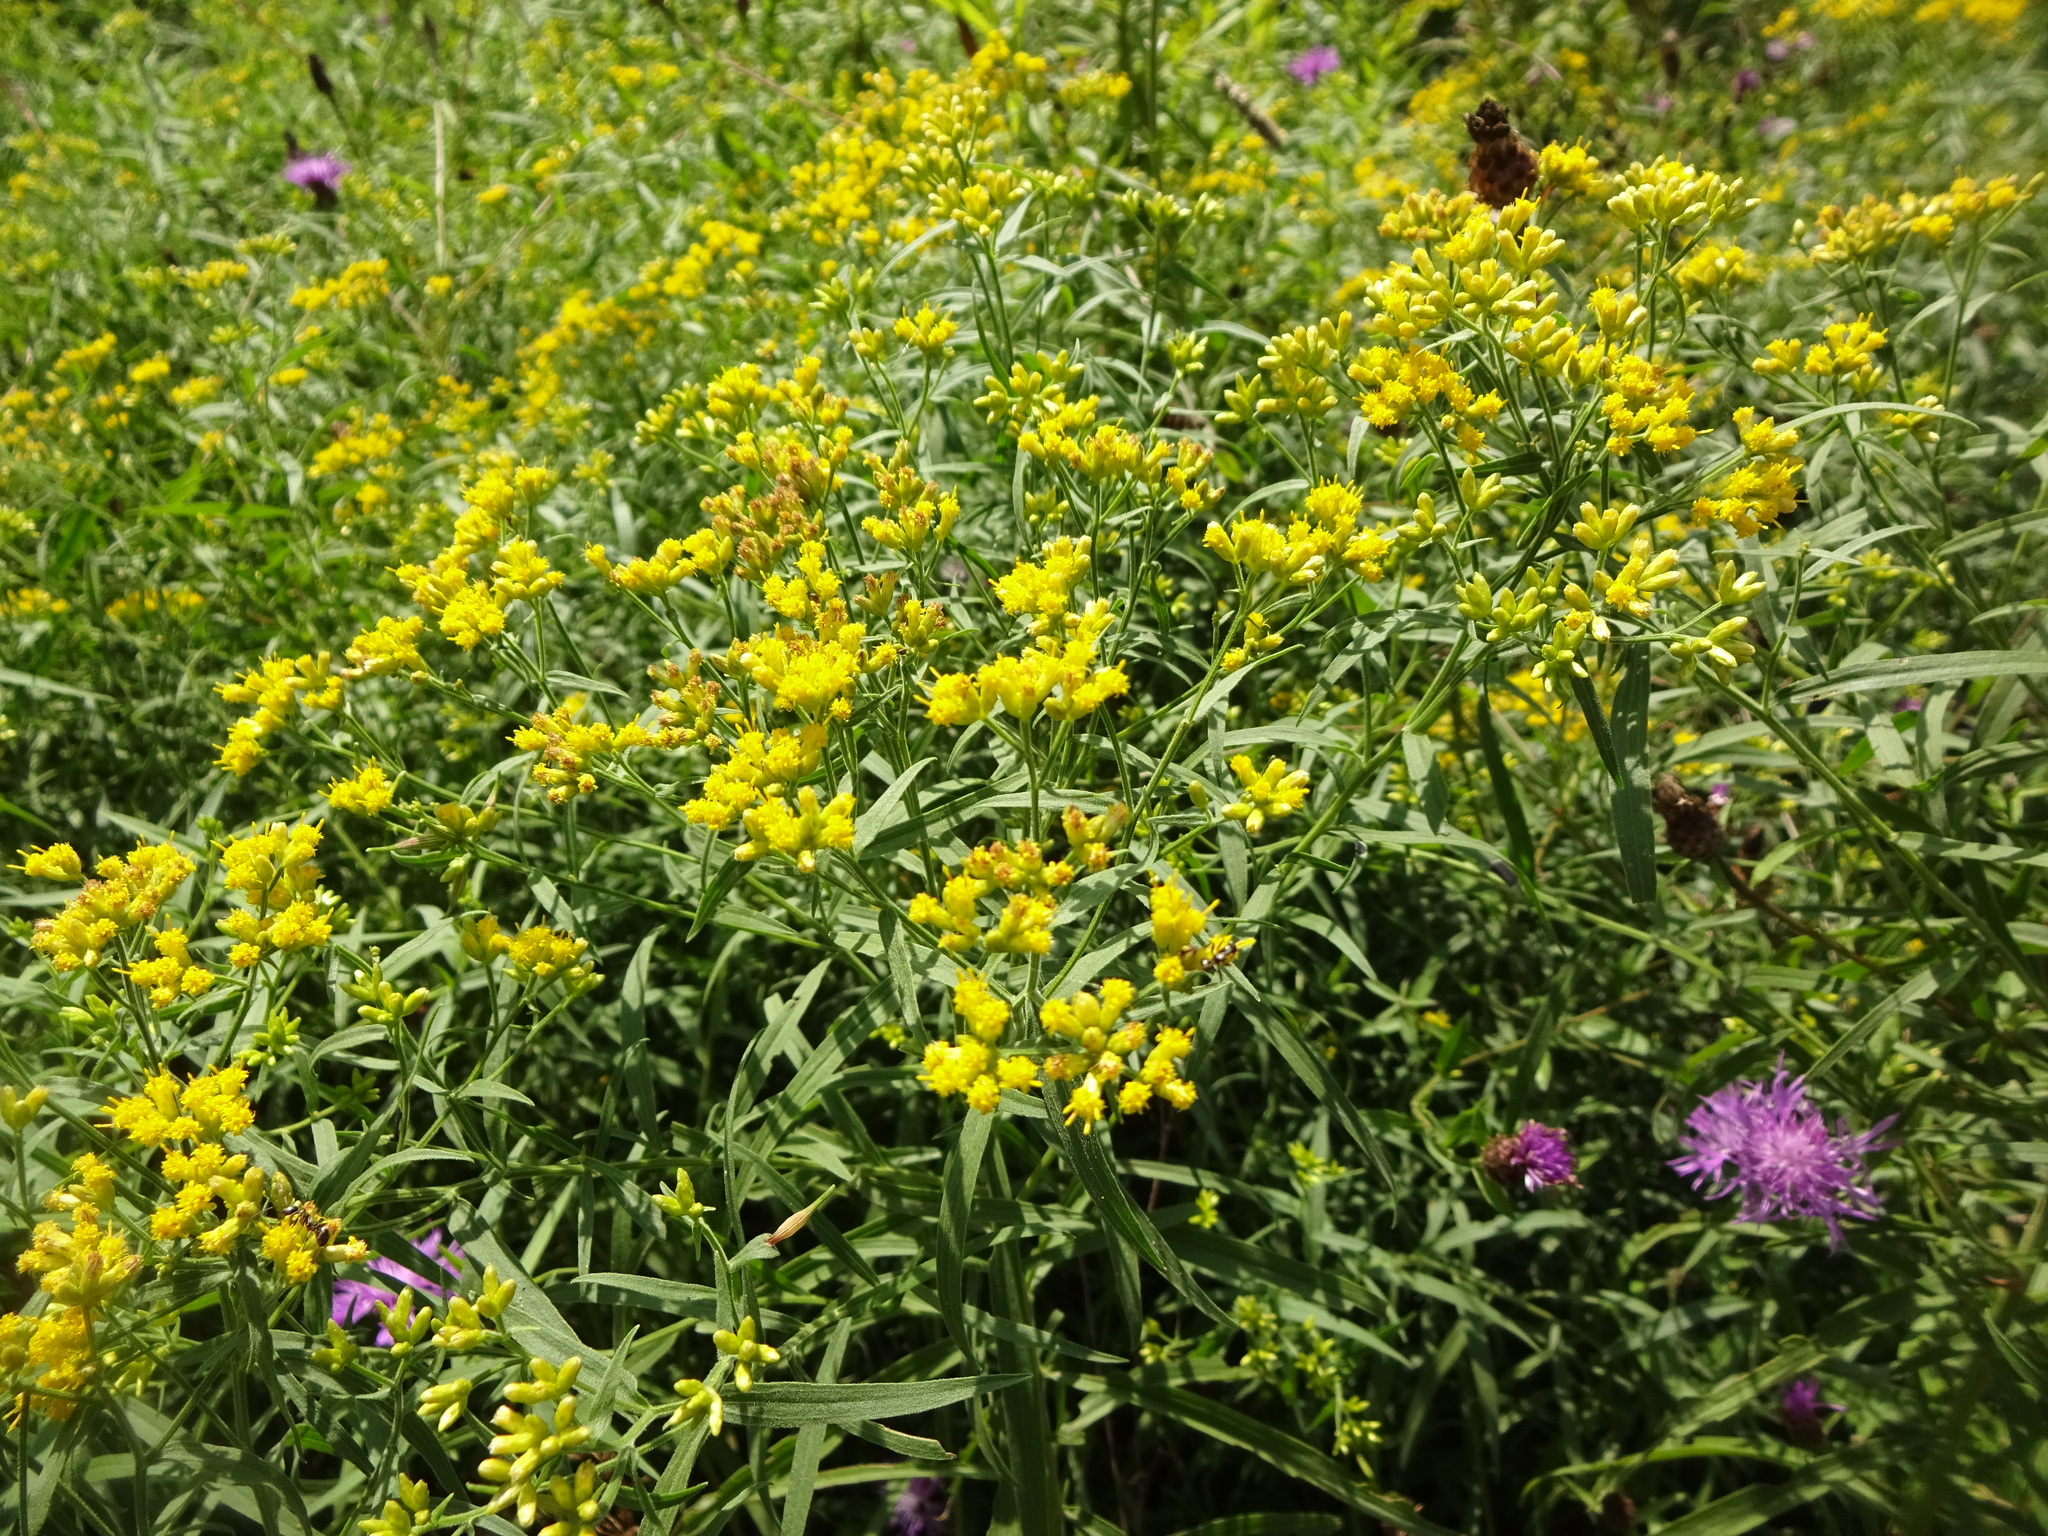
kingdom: Plantae
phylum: Tracheophyta
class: Magnoliopsida
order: Asterales
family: Asteraceae
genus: Euthamia
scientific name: Euthamia graminifolia
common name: Common goldentop
